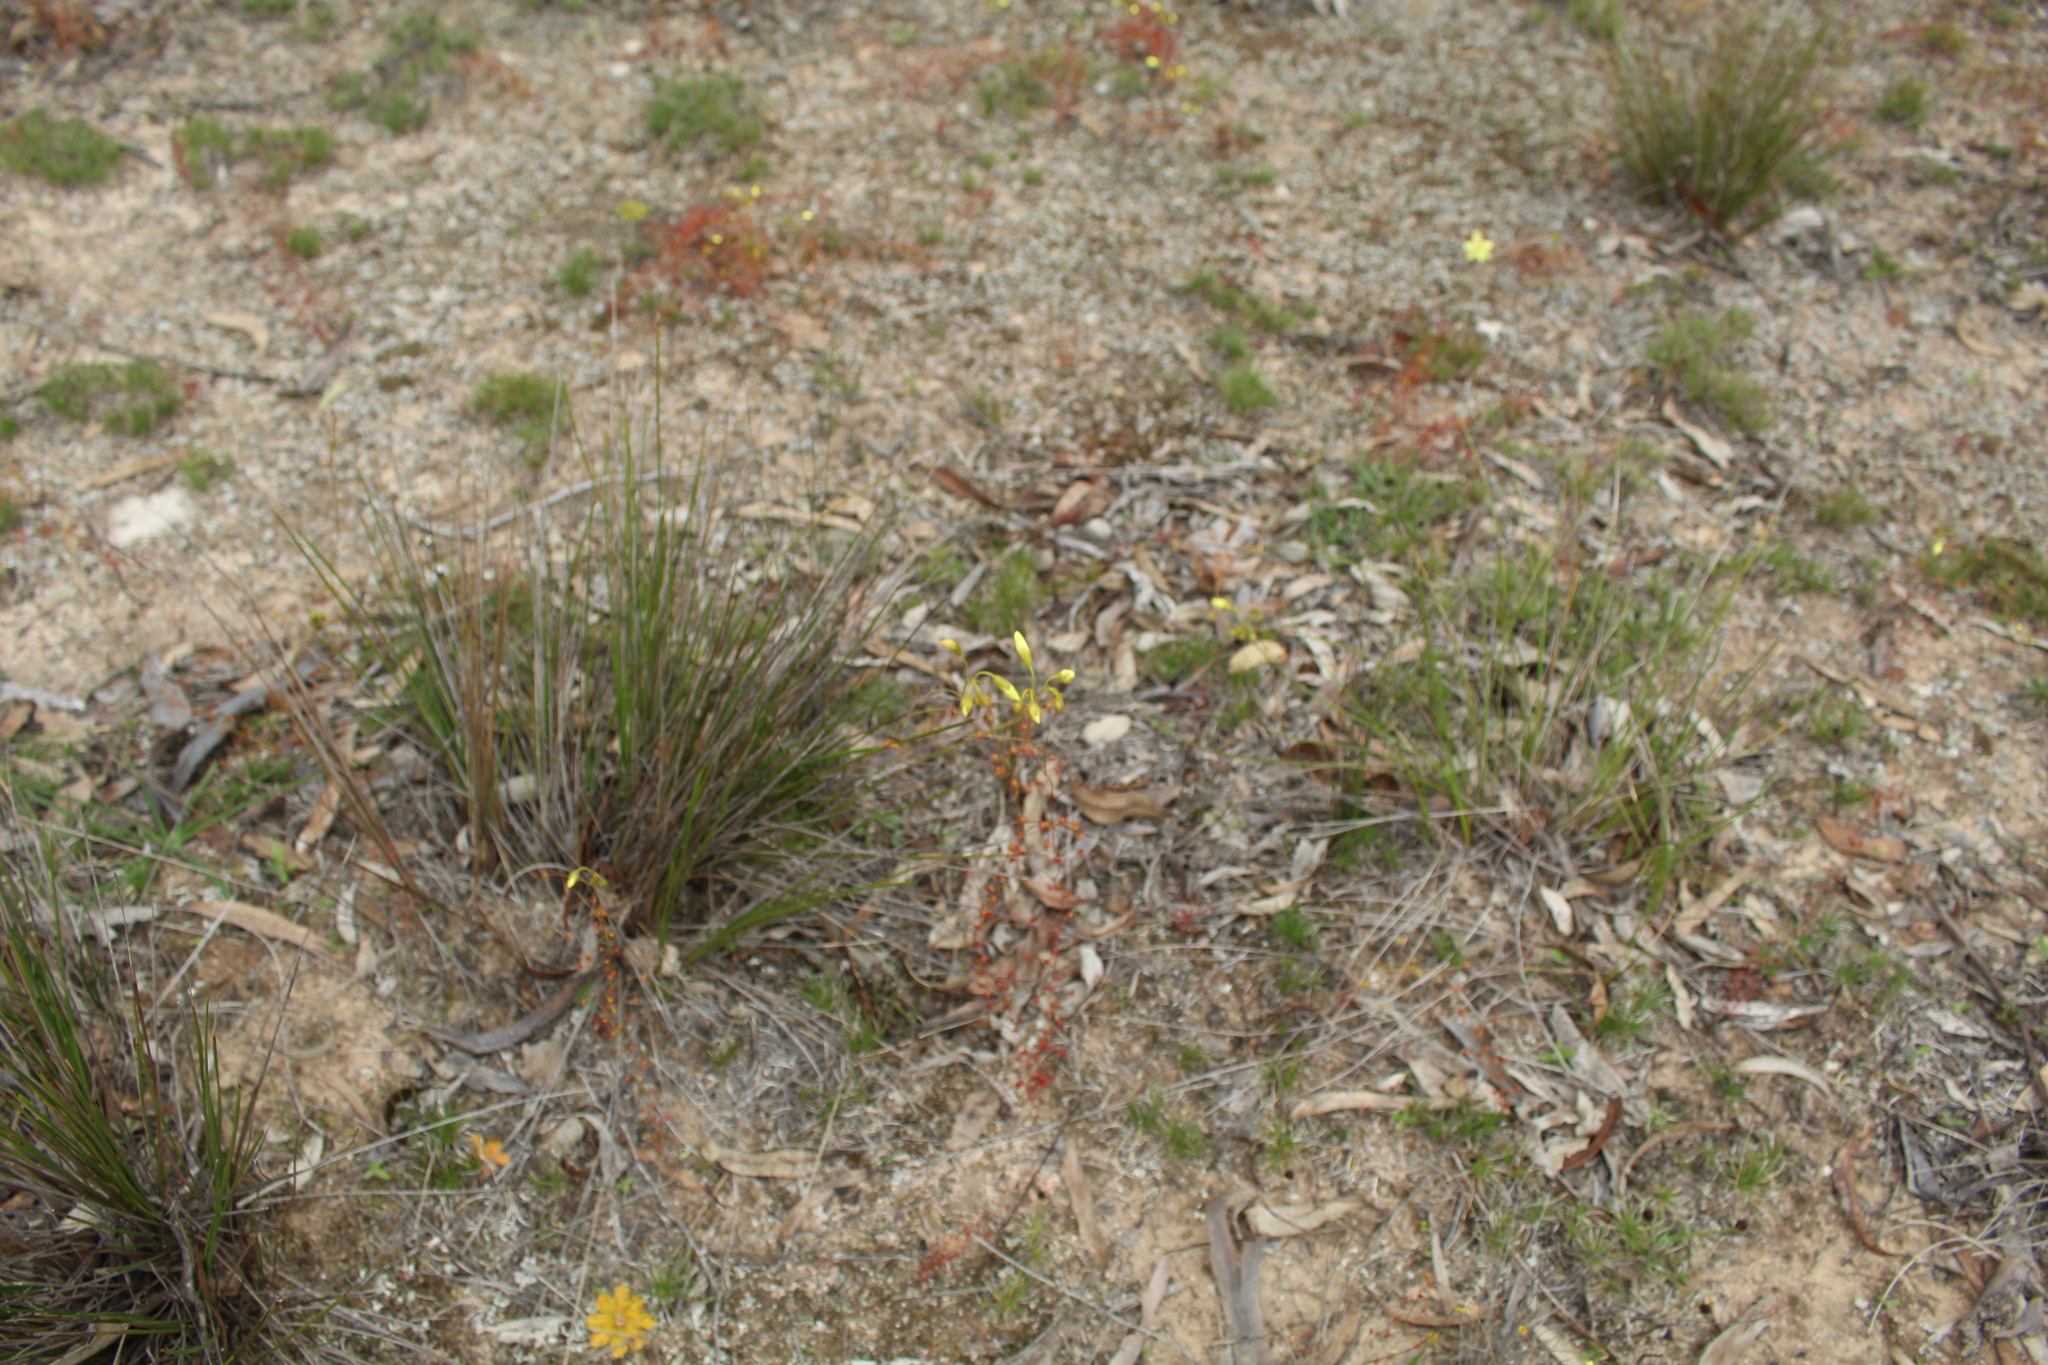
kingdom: Plantae
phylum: Tracheophyta
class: Magnoliopsida
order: Caryophyllales
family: Droseraceae
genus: Drosera
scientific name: Drosera subhirtella
